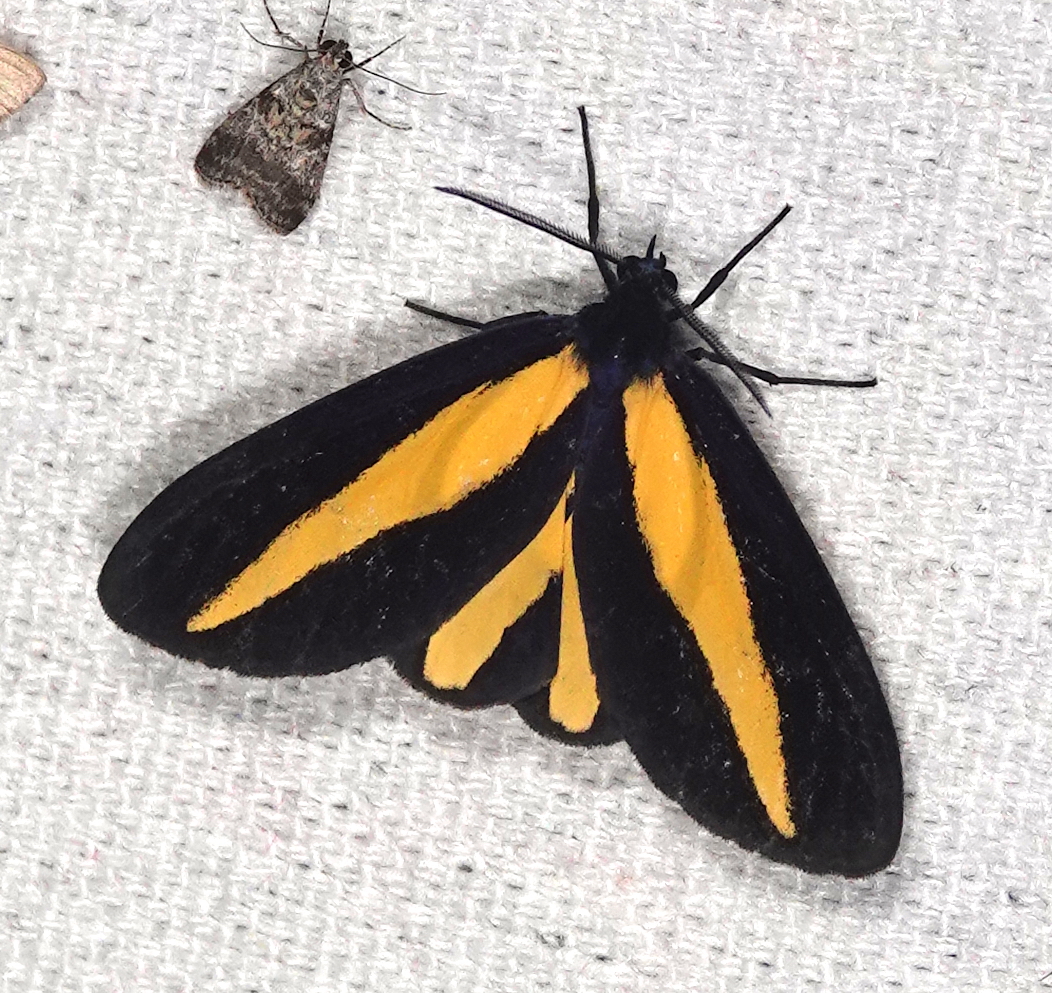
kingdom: Animalia
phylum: Arthropoda
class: Insecta
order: Lepidoptera
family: Erebidae
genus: Crocomela
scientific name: Crocomela erectistria
